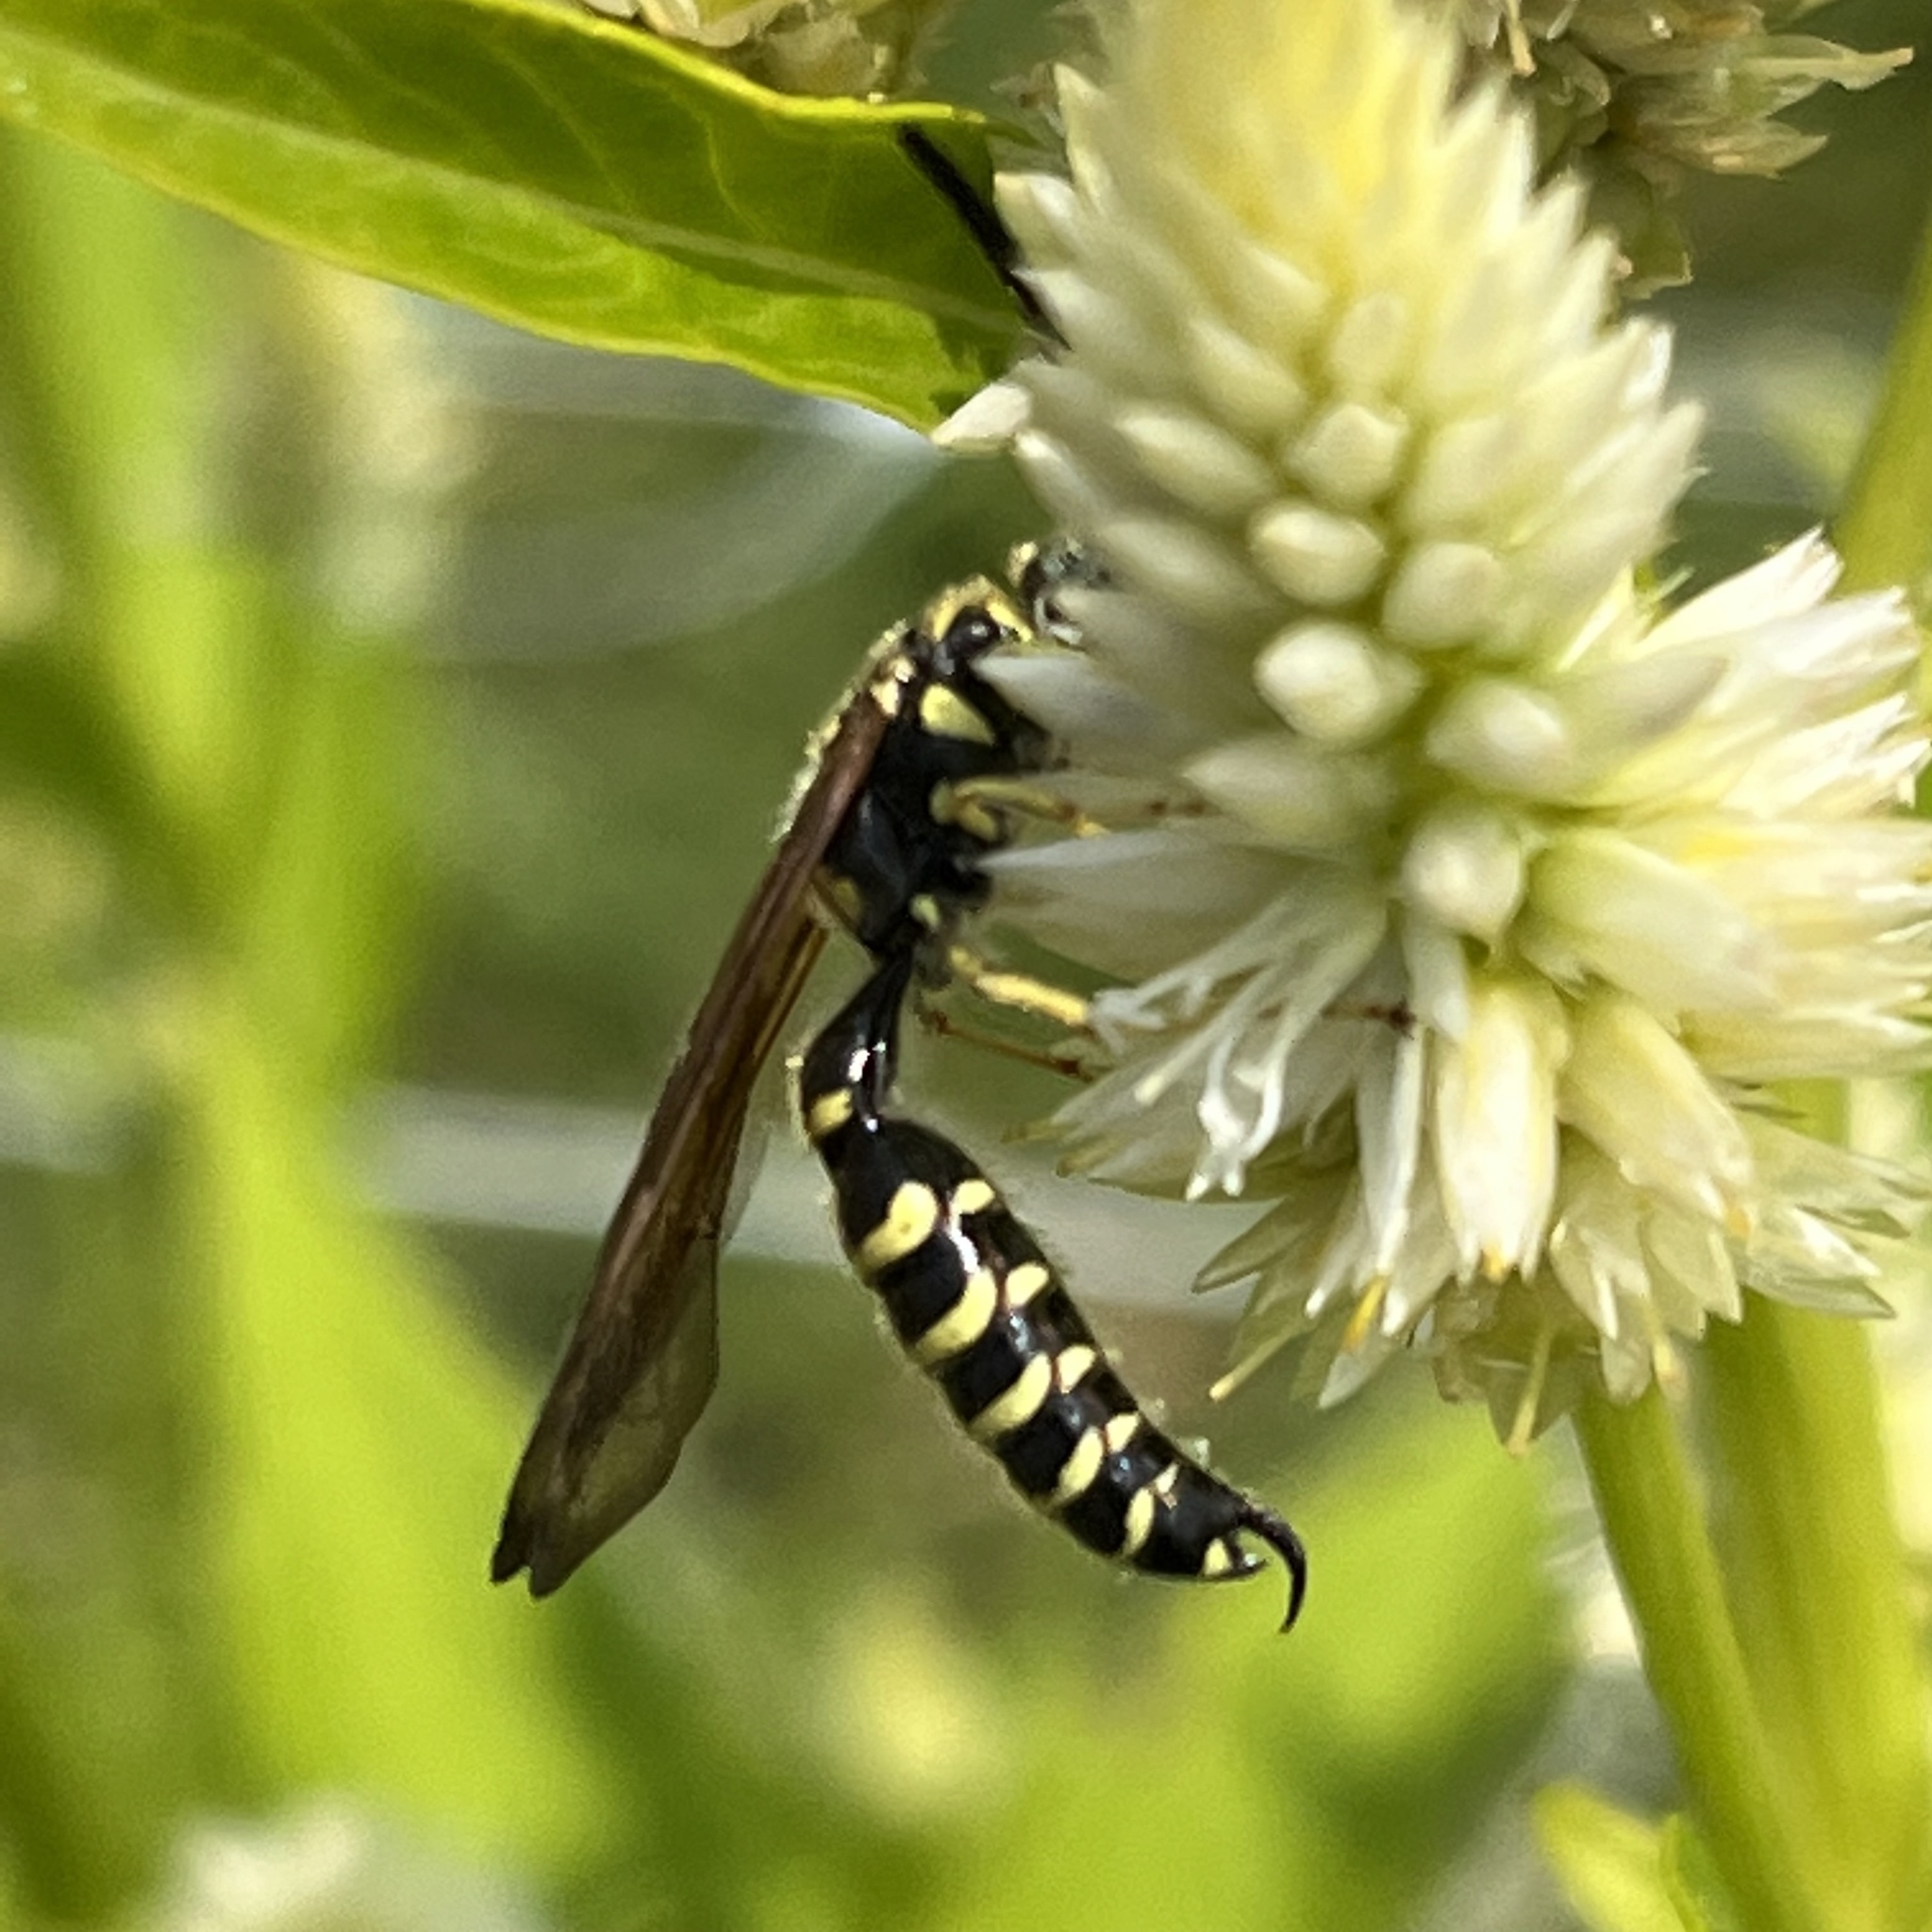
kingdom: Animalia
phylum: Arthropoda
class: Insecta
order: Hymenoptera
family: Tiphiidae
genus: Myzinum
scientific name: Myzinum quinquecinctum
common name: Five-banded thynnid wasp
